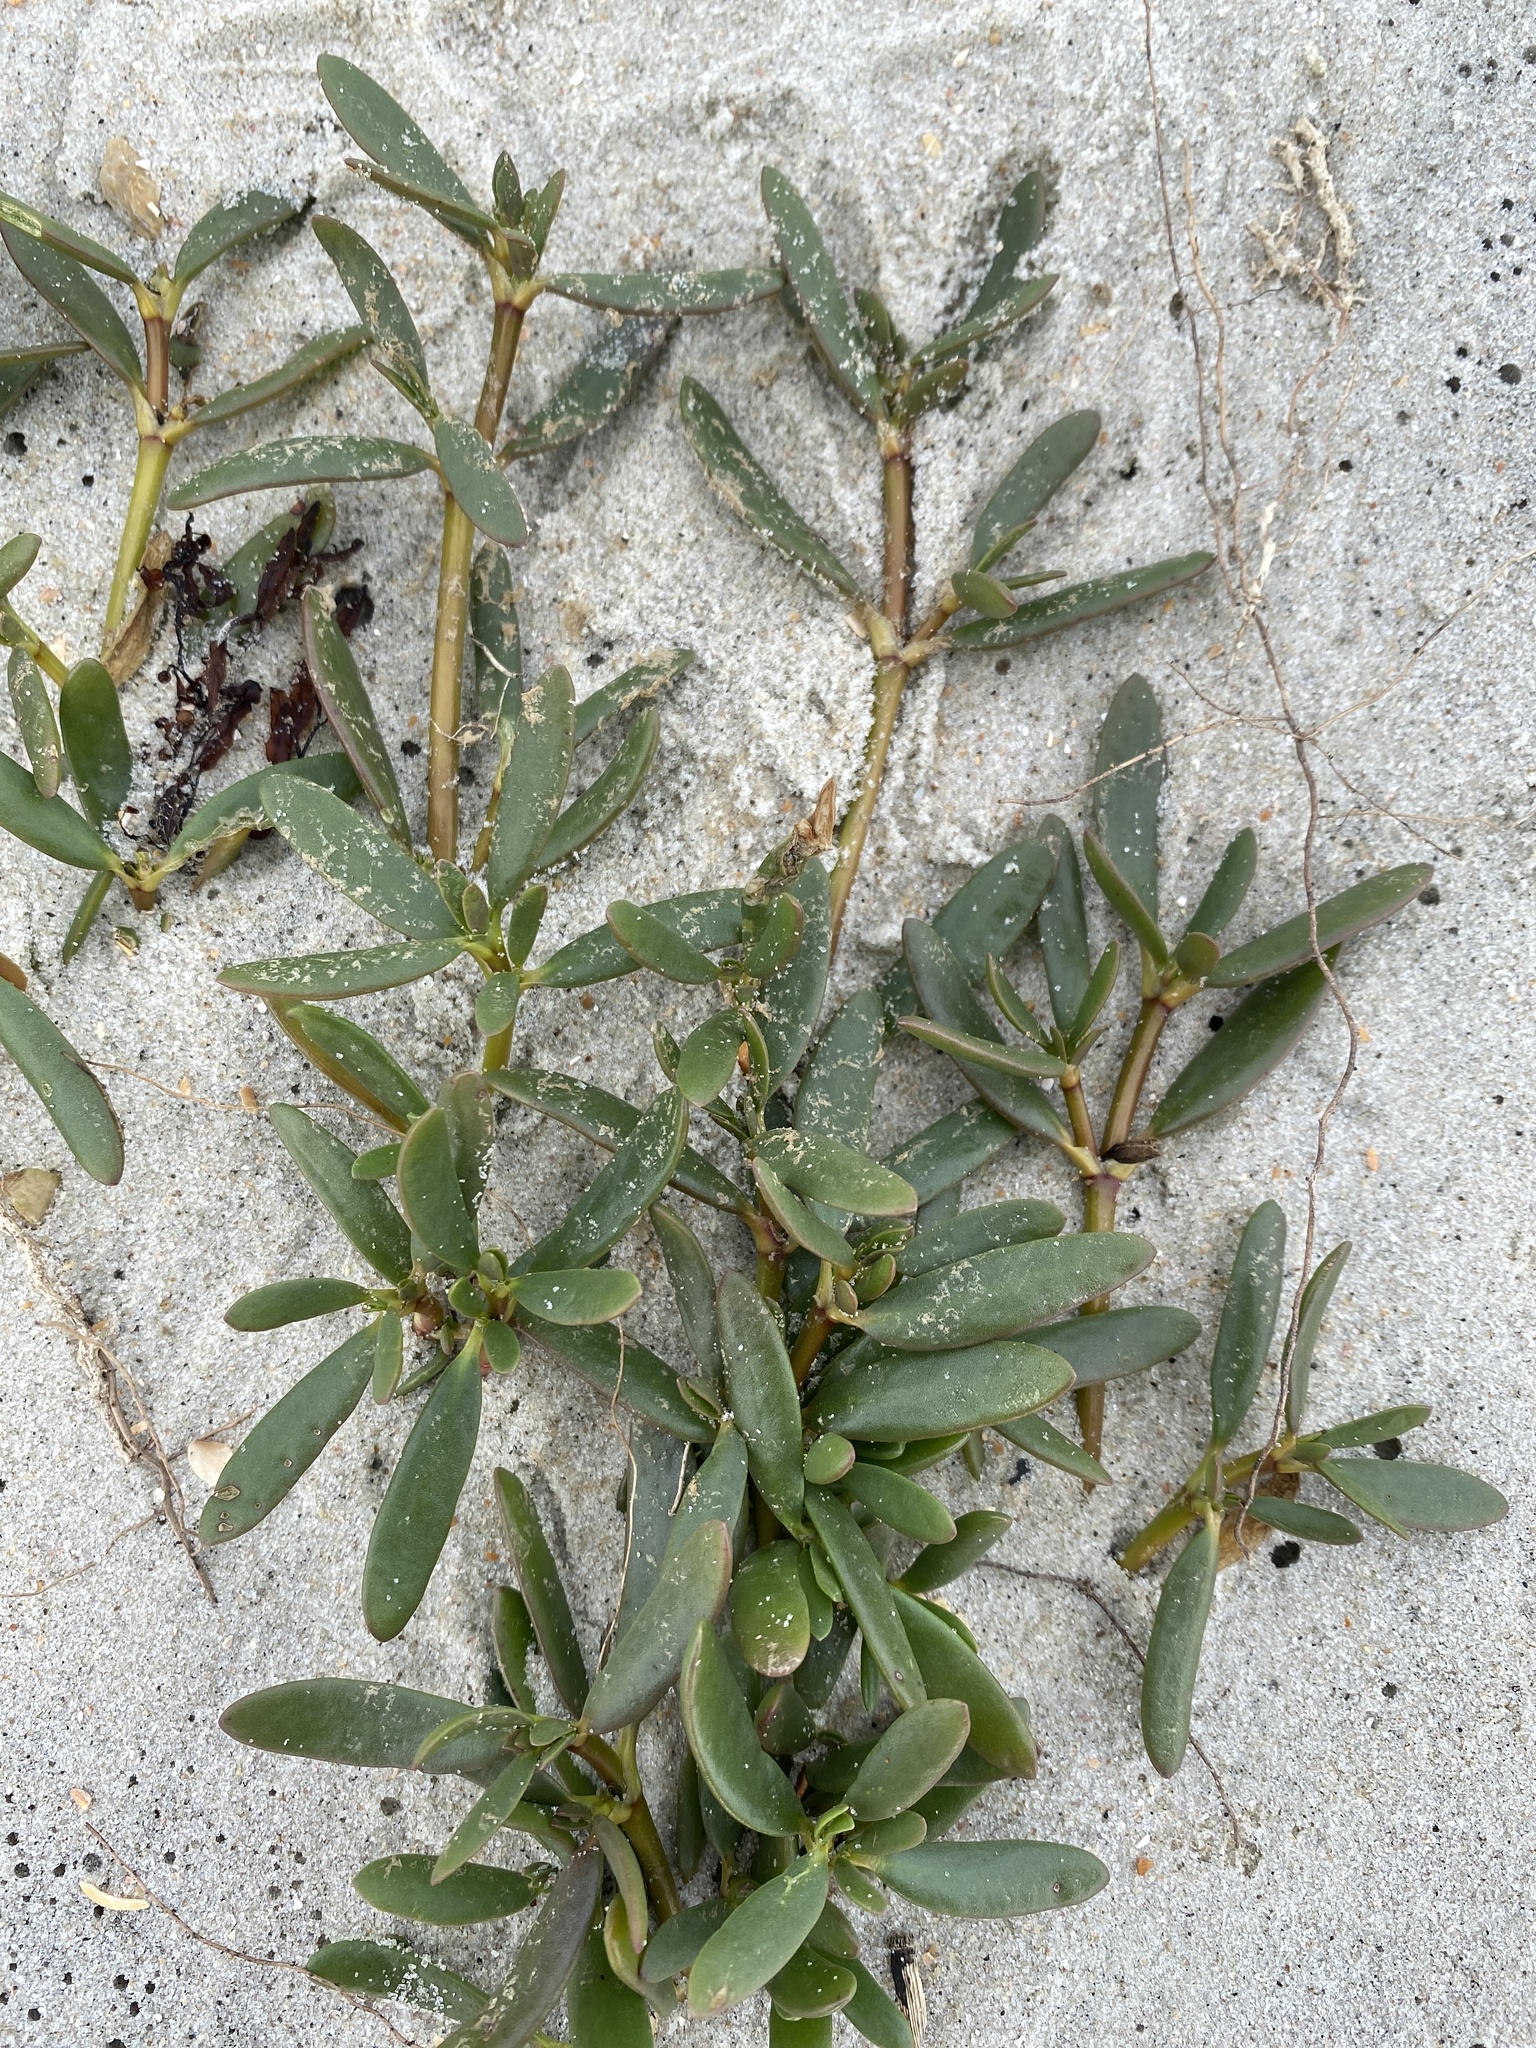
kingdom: Plantae
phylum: Tracheophyta
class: Magnoliopsida
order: Caryophyllales
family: Aizoaceae
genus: Sesuvium
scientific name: Sesuvium portulacastrum
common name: Sea-purslane
